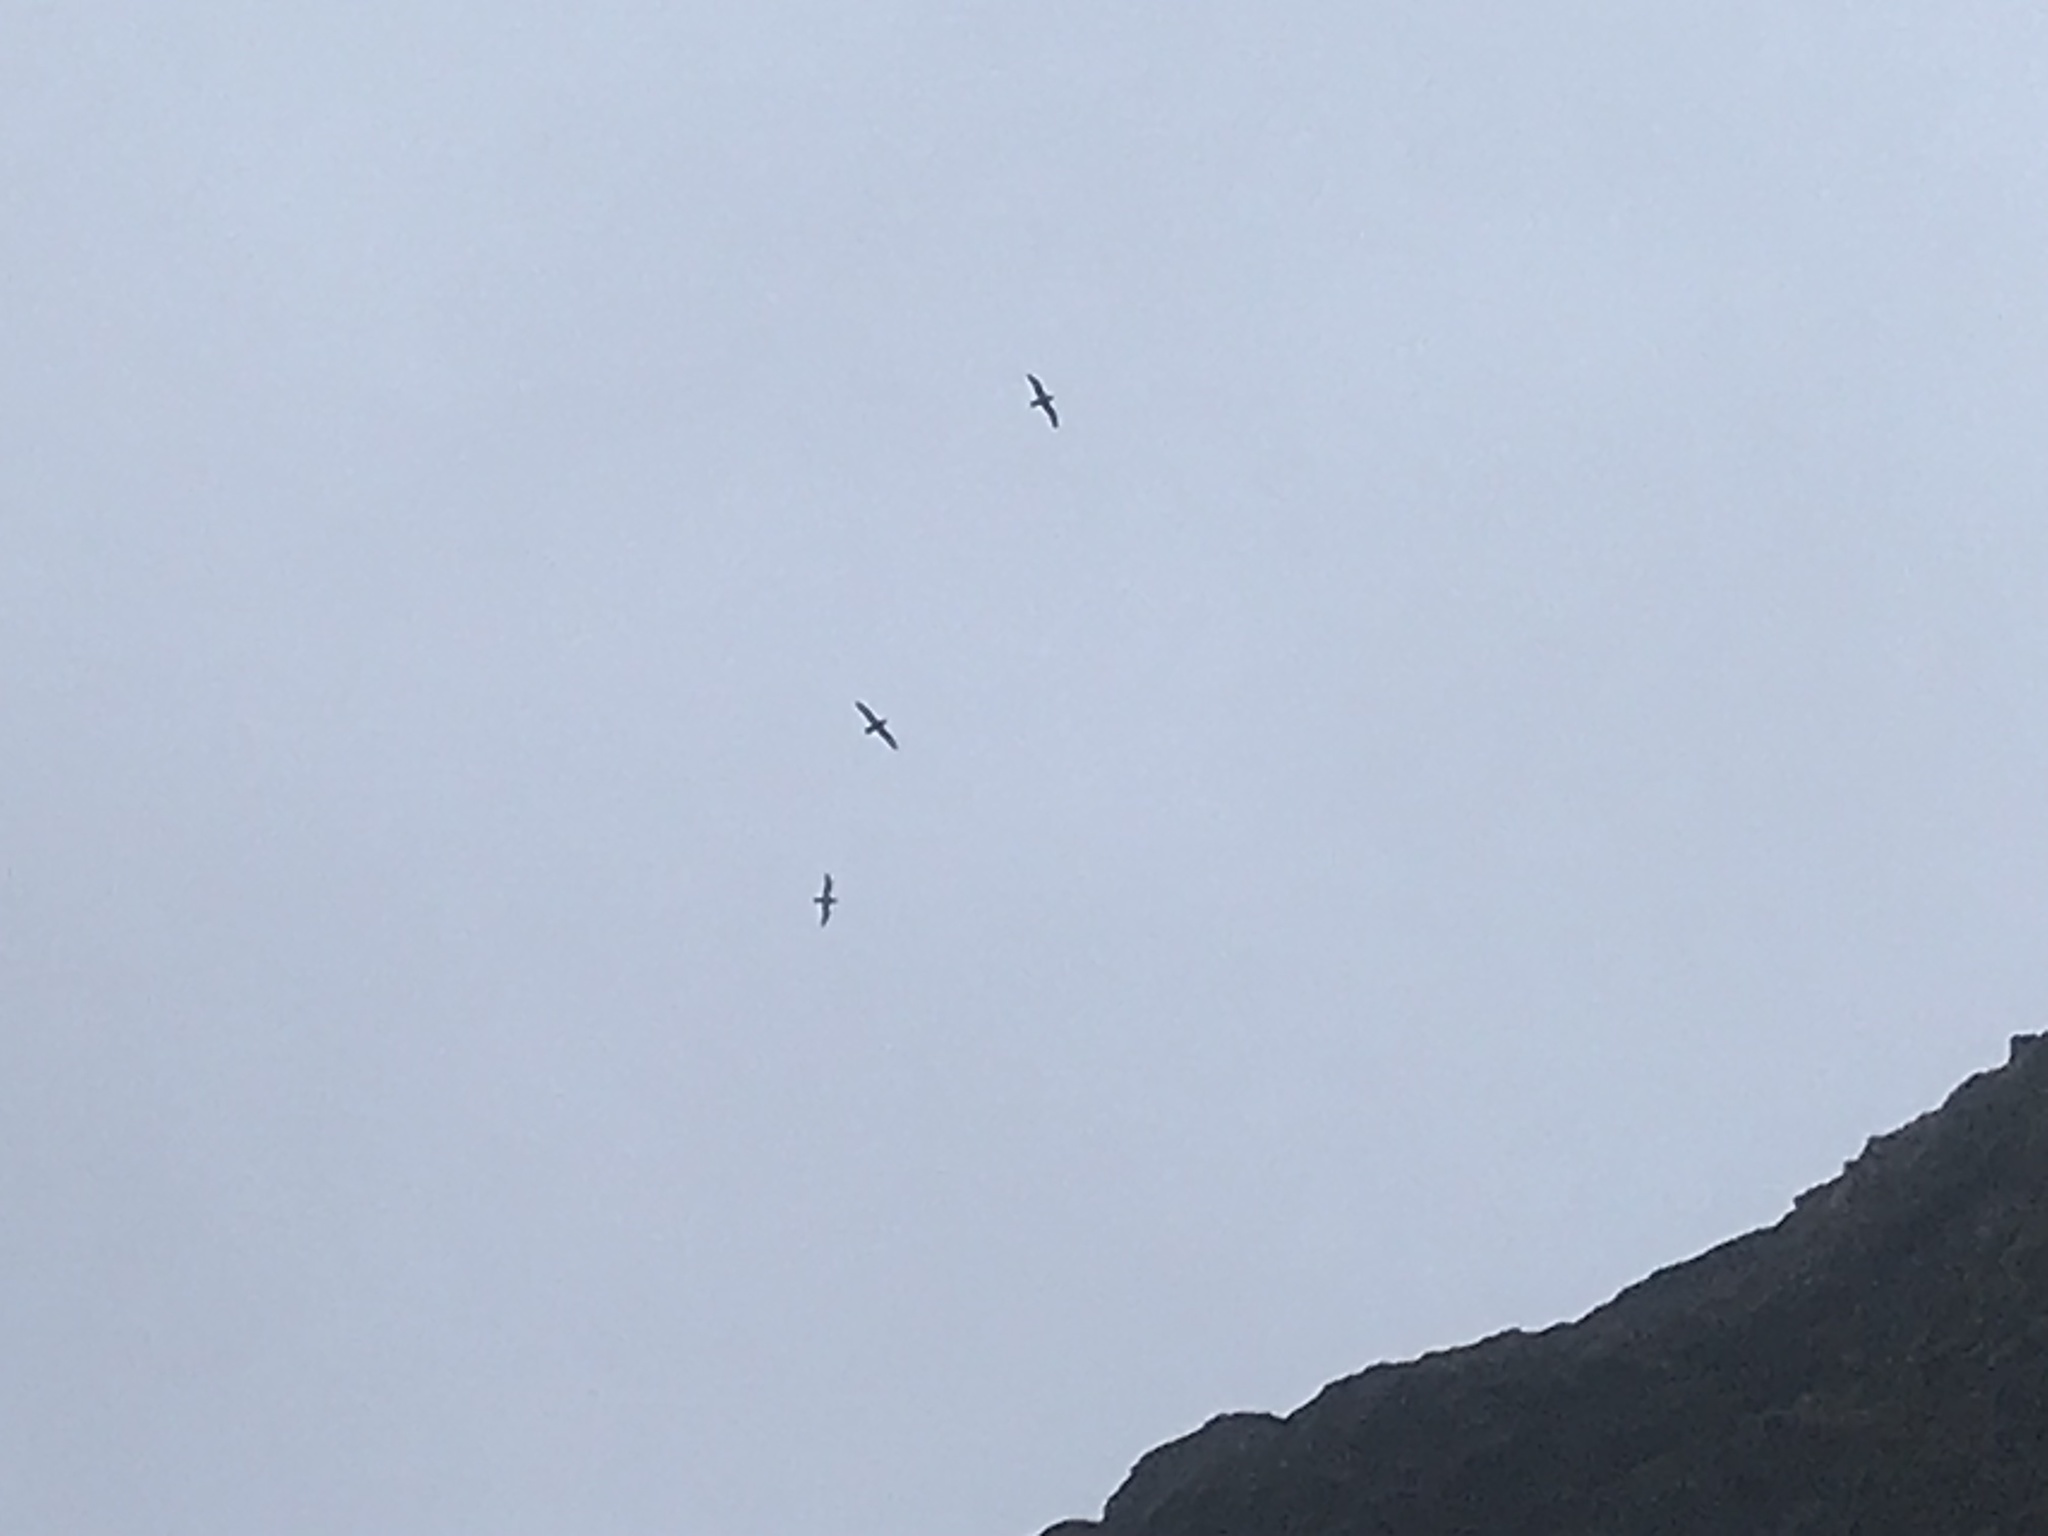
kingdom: Animalia
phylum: Chordata
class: Aves
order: Procellariiformes
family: Procellariidae
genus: Fulmarus
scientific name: Fulmarus glacialis
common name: Northern fulmar
